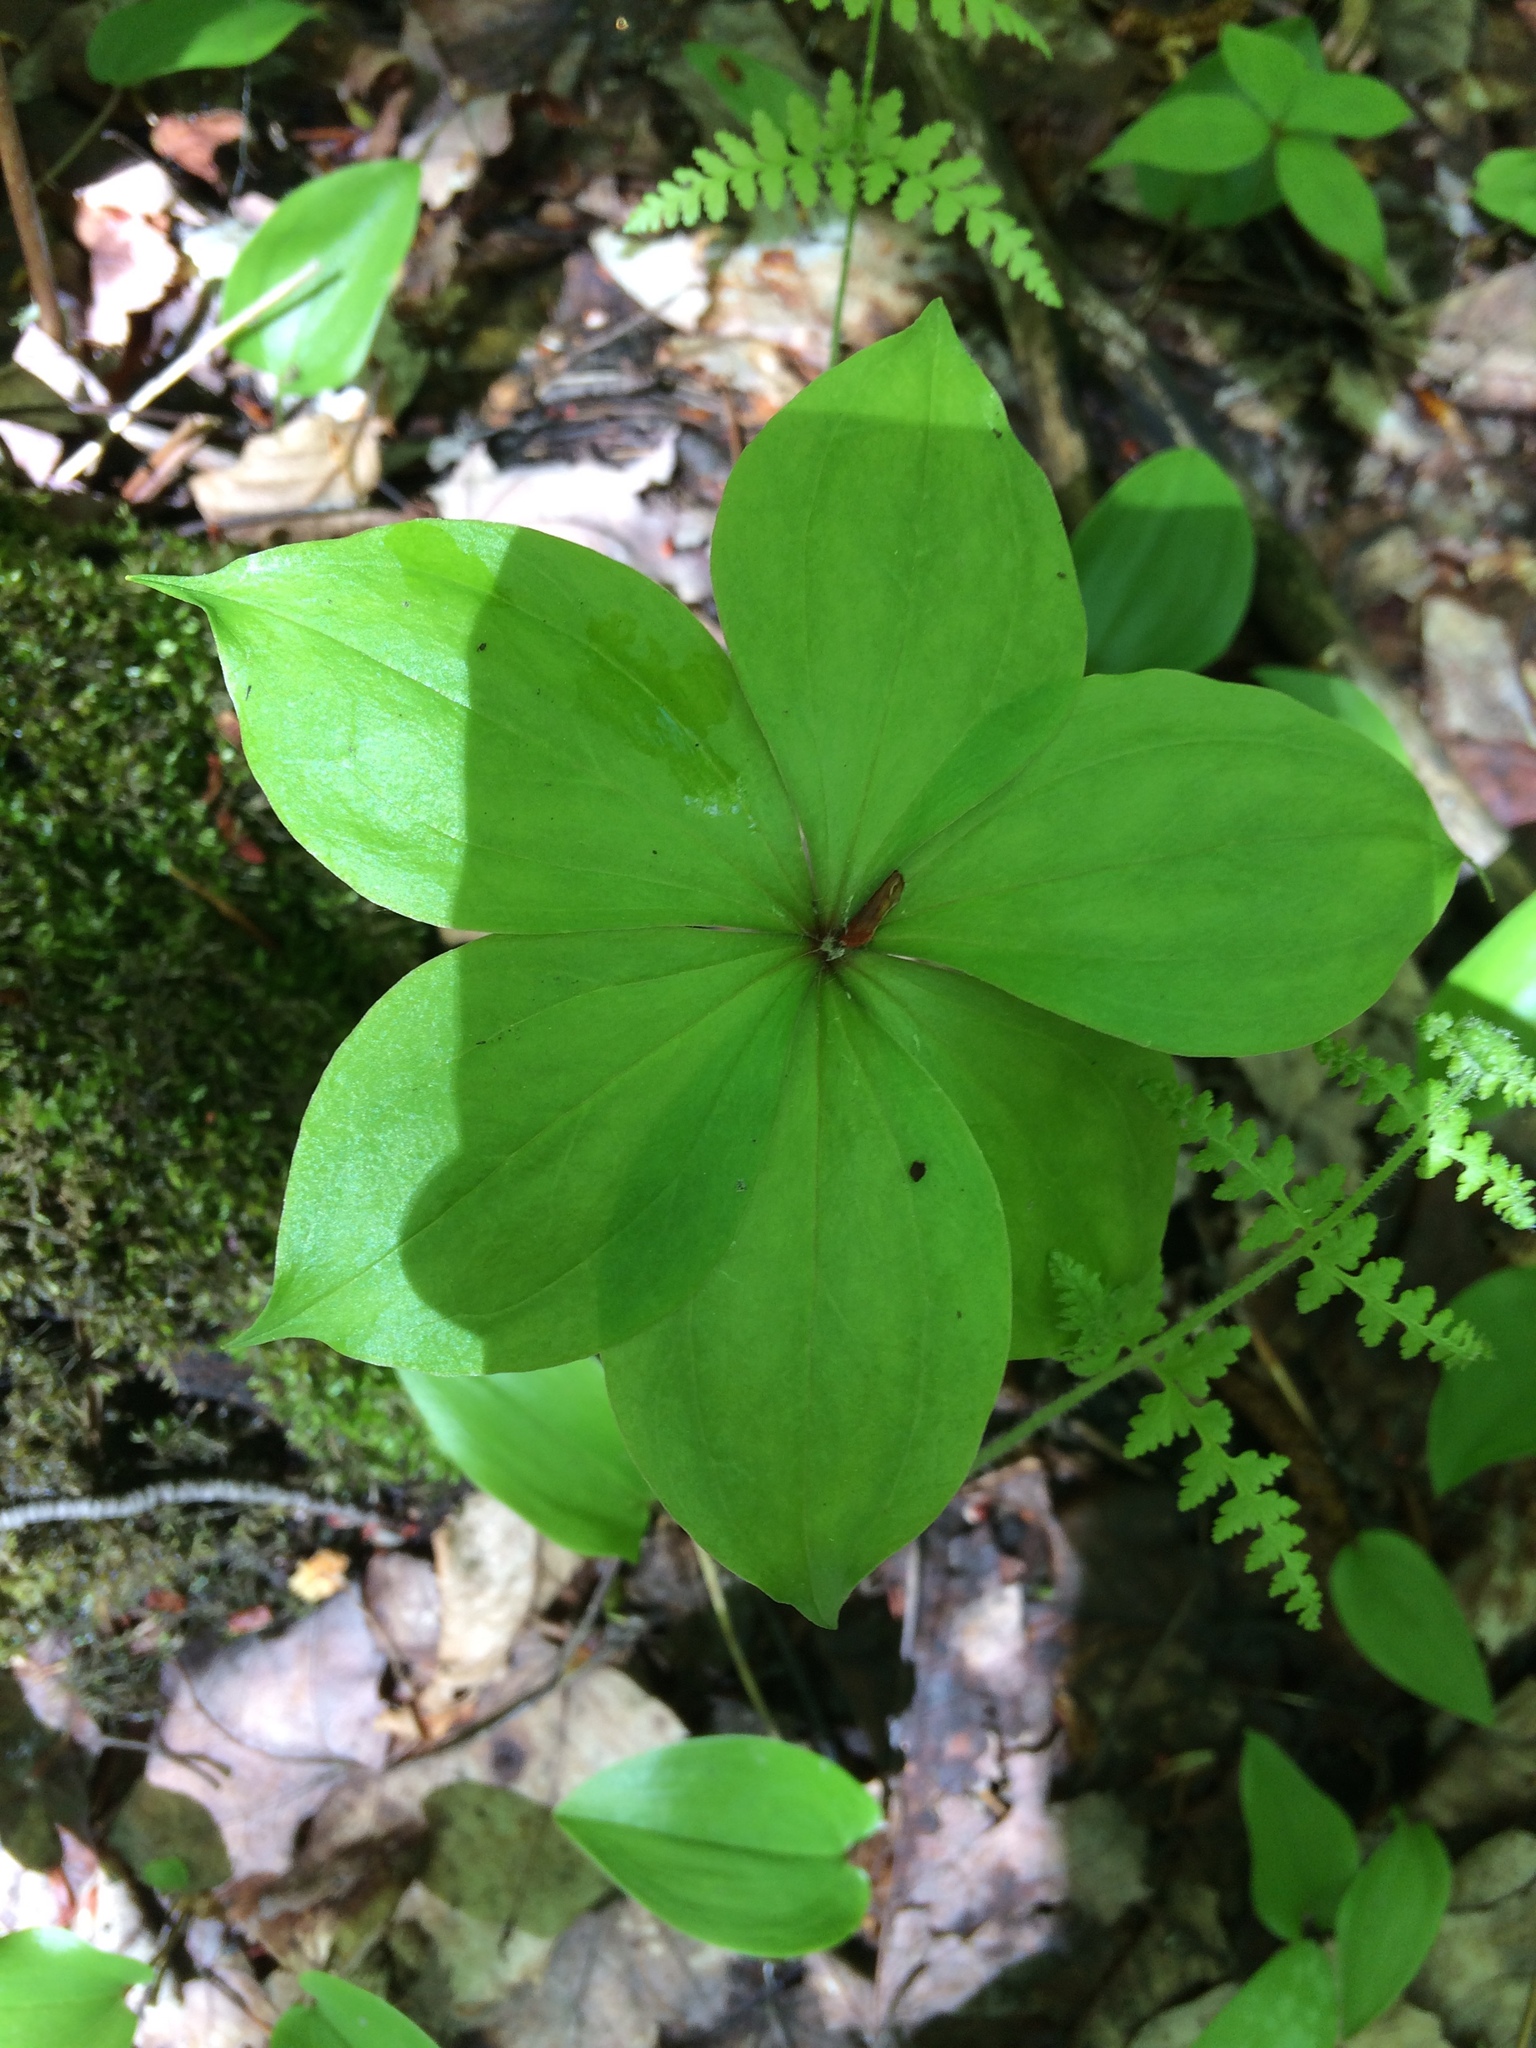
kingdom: Plantae
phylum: Tracheophyta
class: Liliopsida
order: Liliales
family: Liliaceae
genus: Medeola
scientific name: Medeola virginiana
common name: Indian cucumber-root
